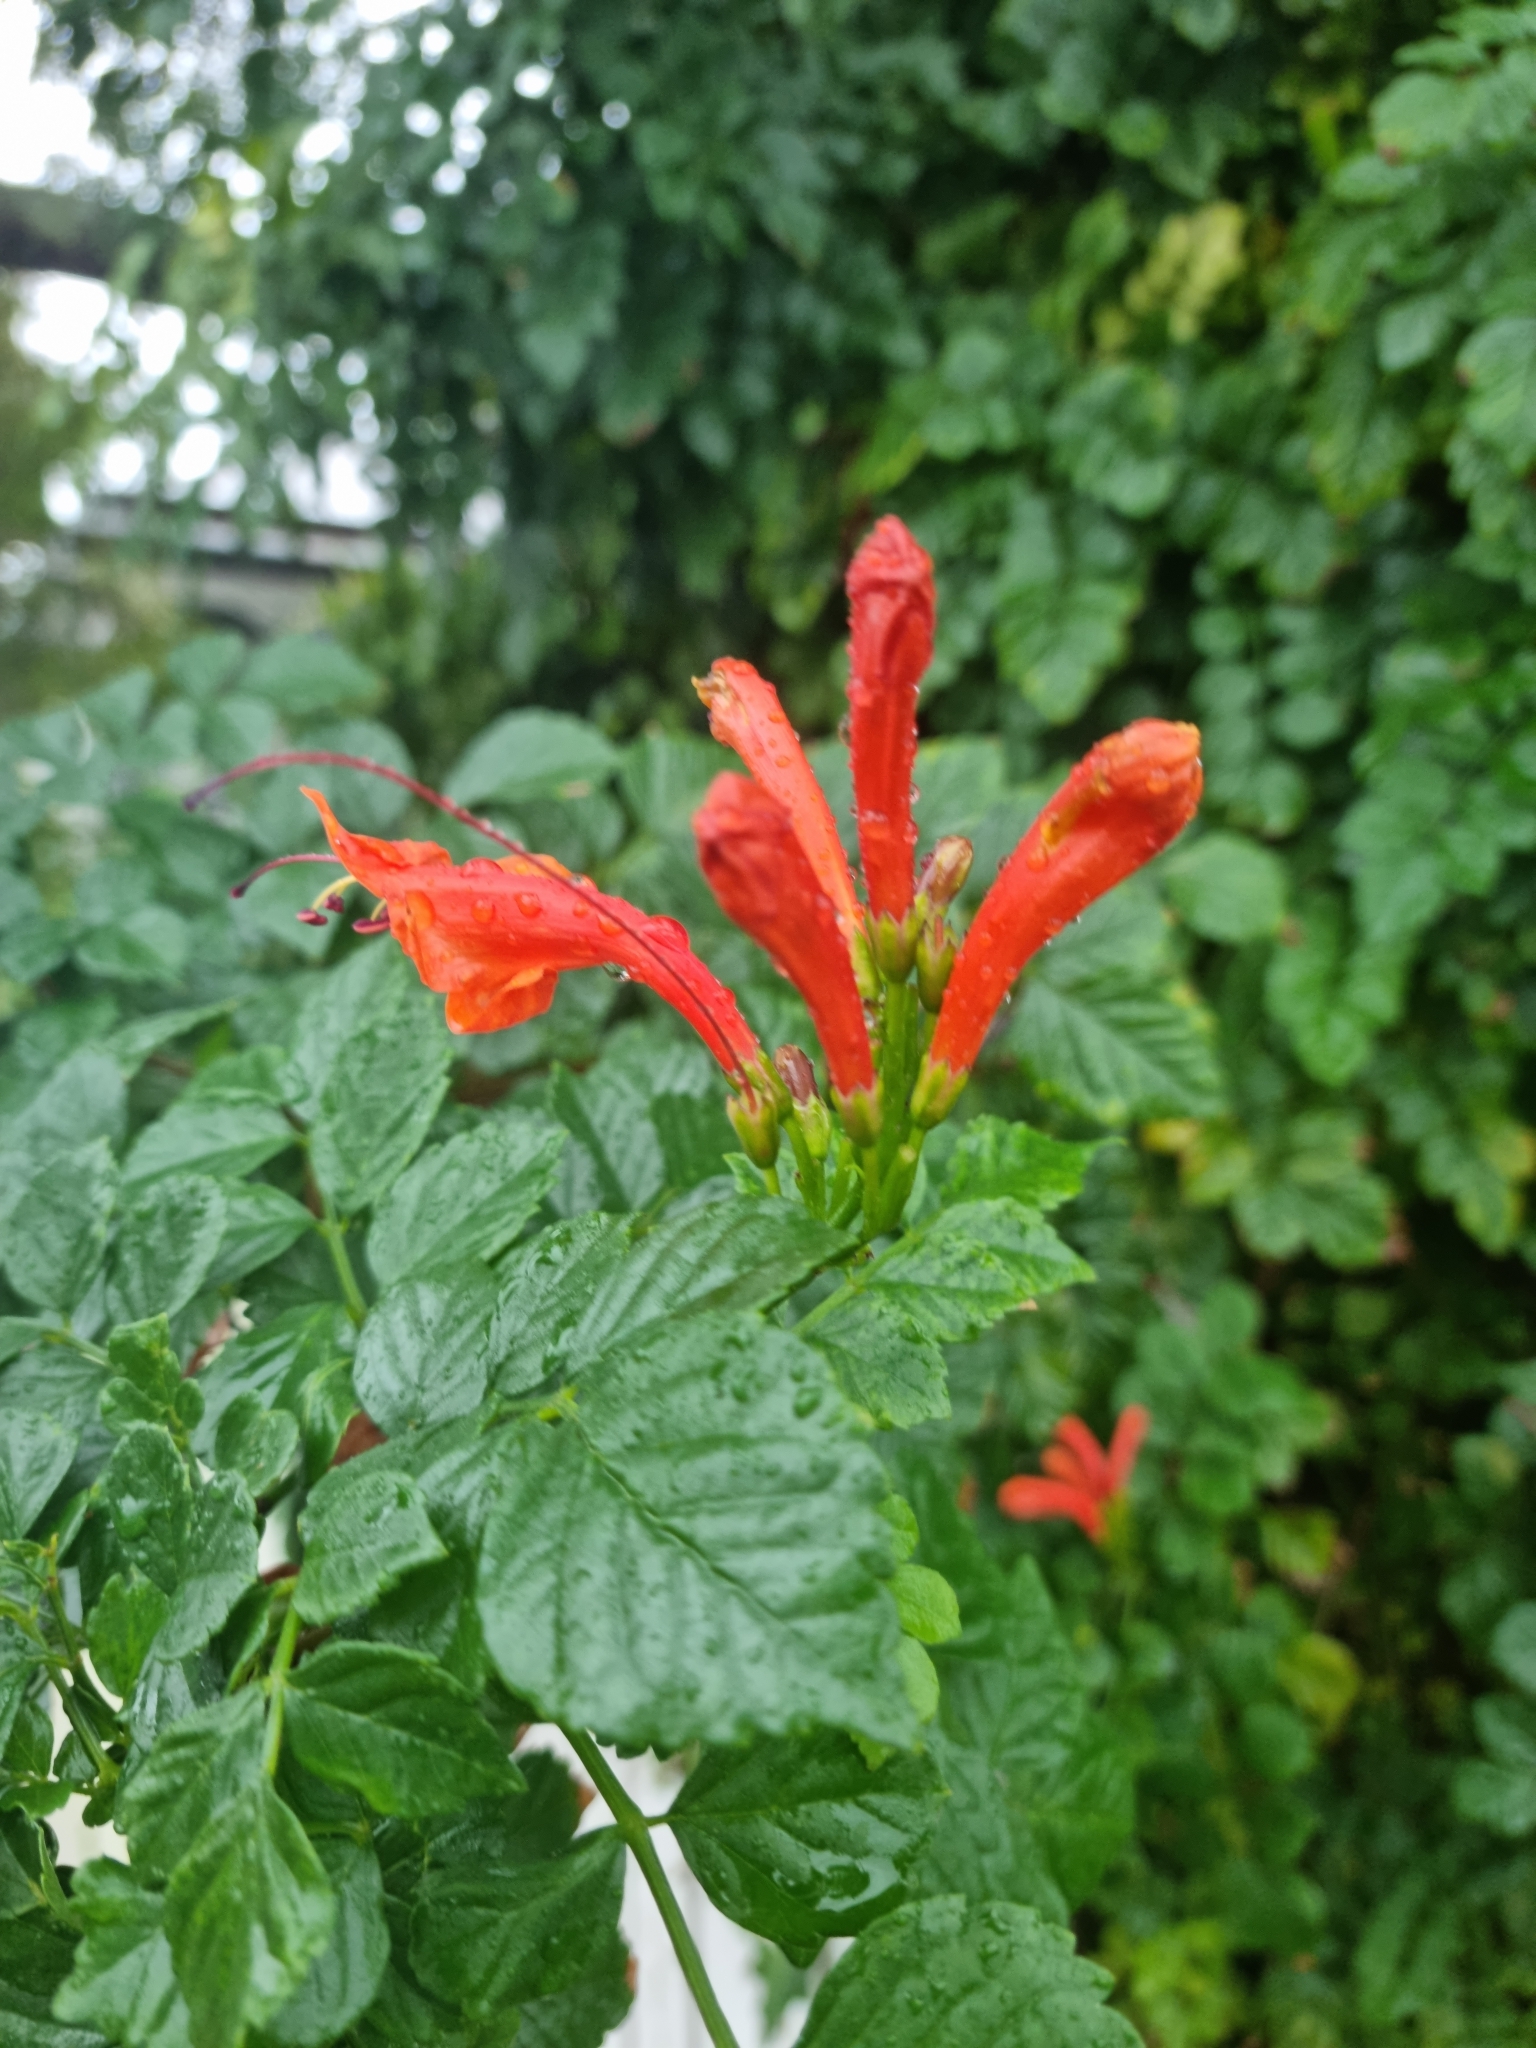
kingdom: Plantae
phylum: Tracheophyta
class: Magnoliopsida
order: Lamiales
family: Bignoniaceae
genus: Tecomaria
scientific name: Tecomaria capensis
